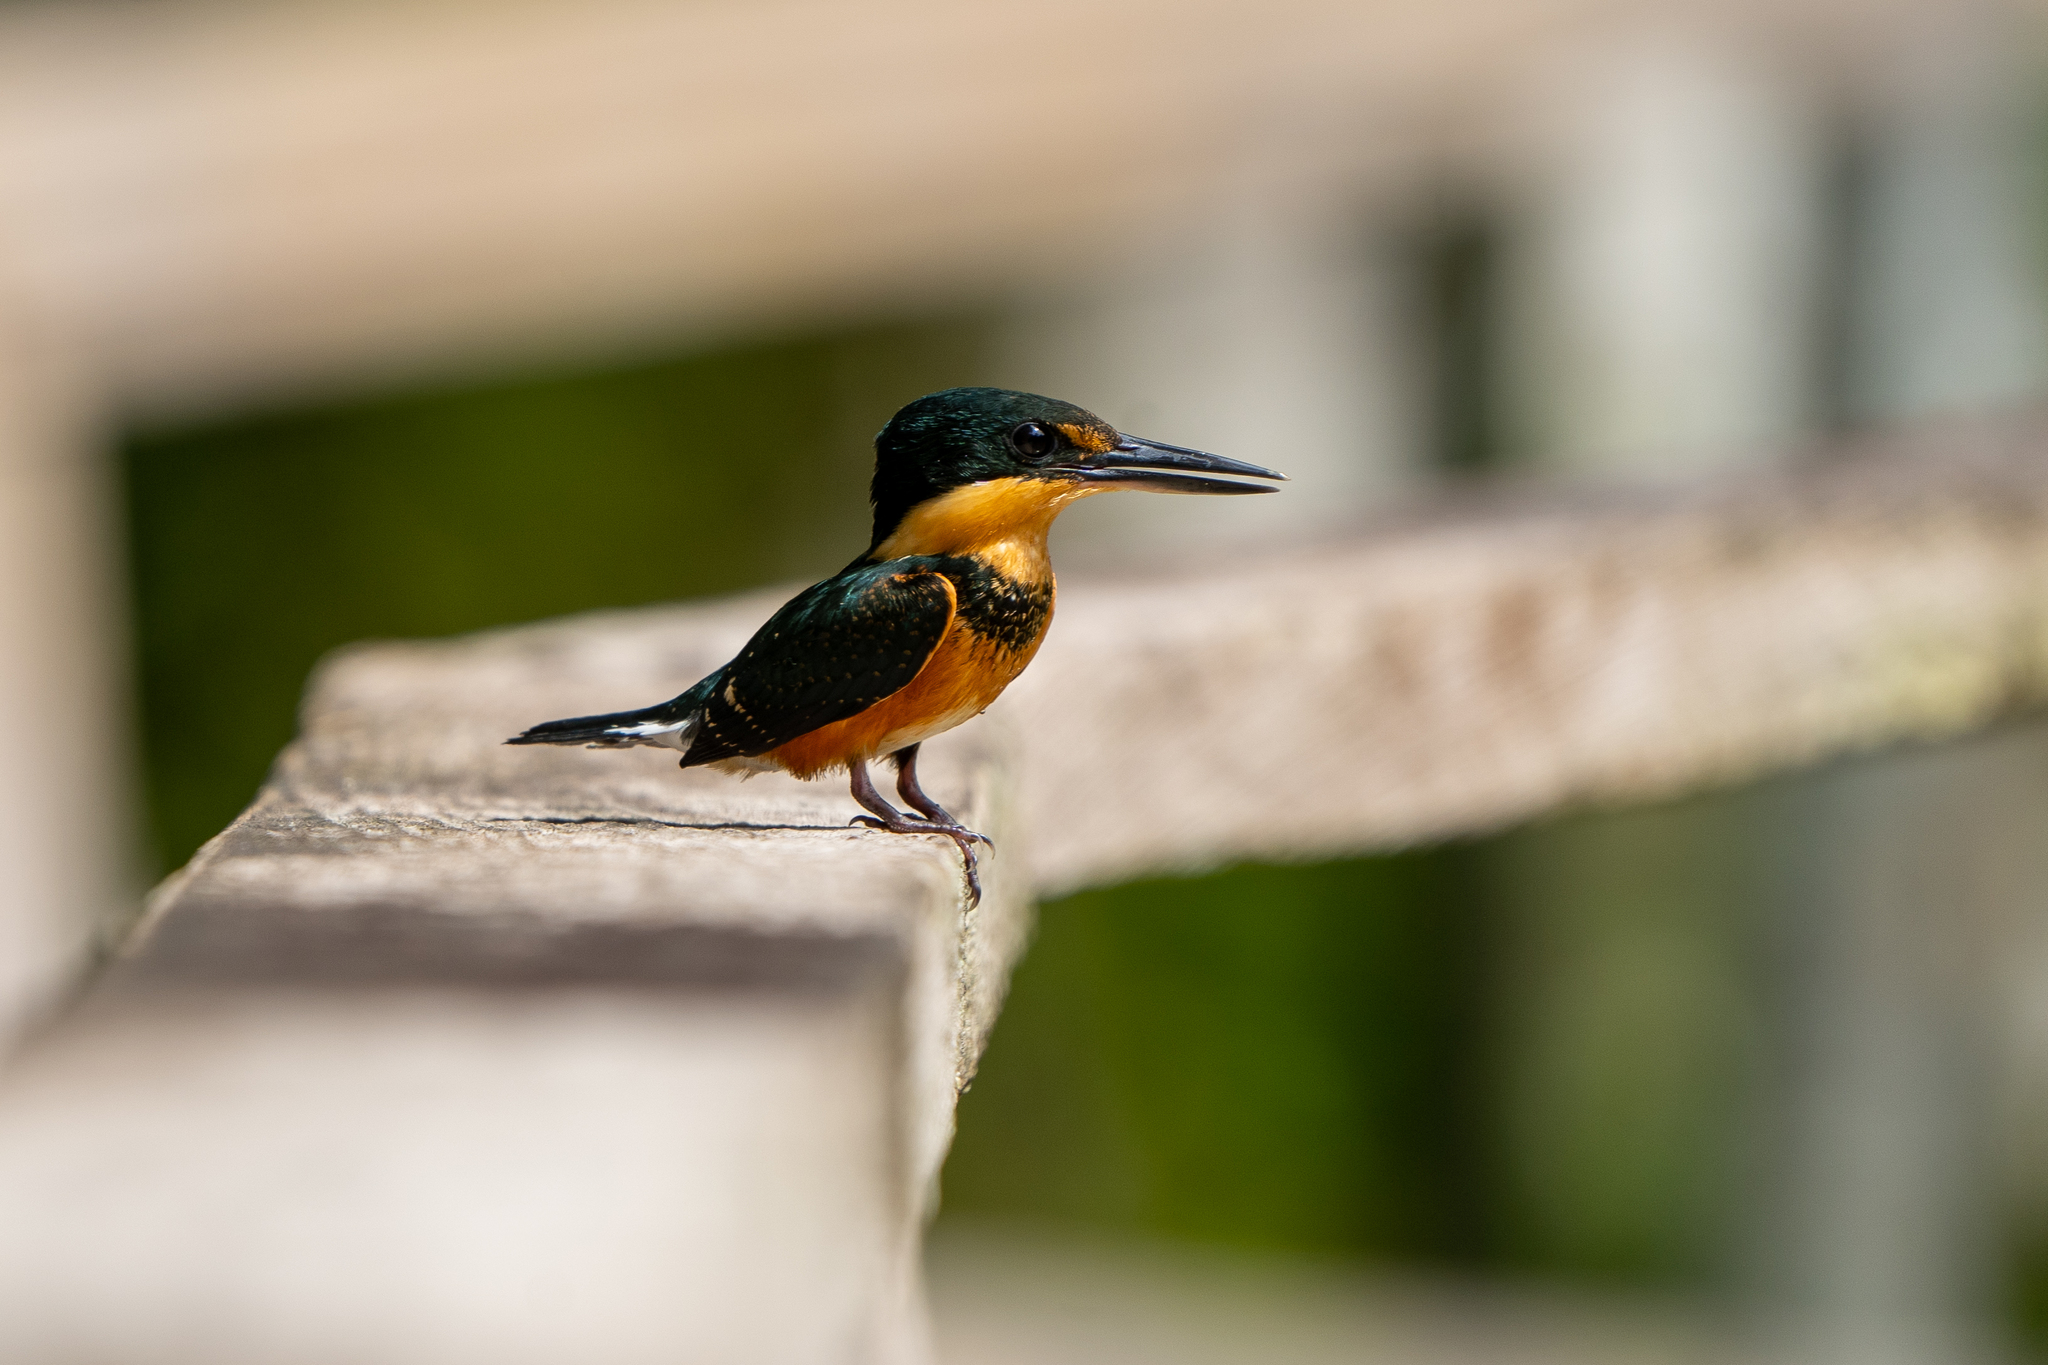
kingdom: Animalia
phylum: Chordata
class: Aves
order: Coraciiformes
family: Alcedinidae
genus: Chloroceryle
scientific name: Chloroceryle aenea
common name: American pygmy kingfisher
